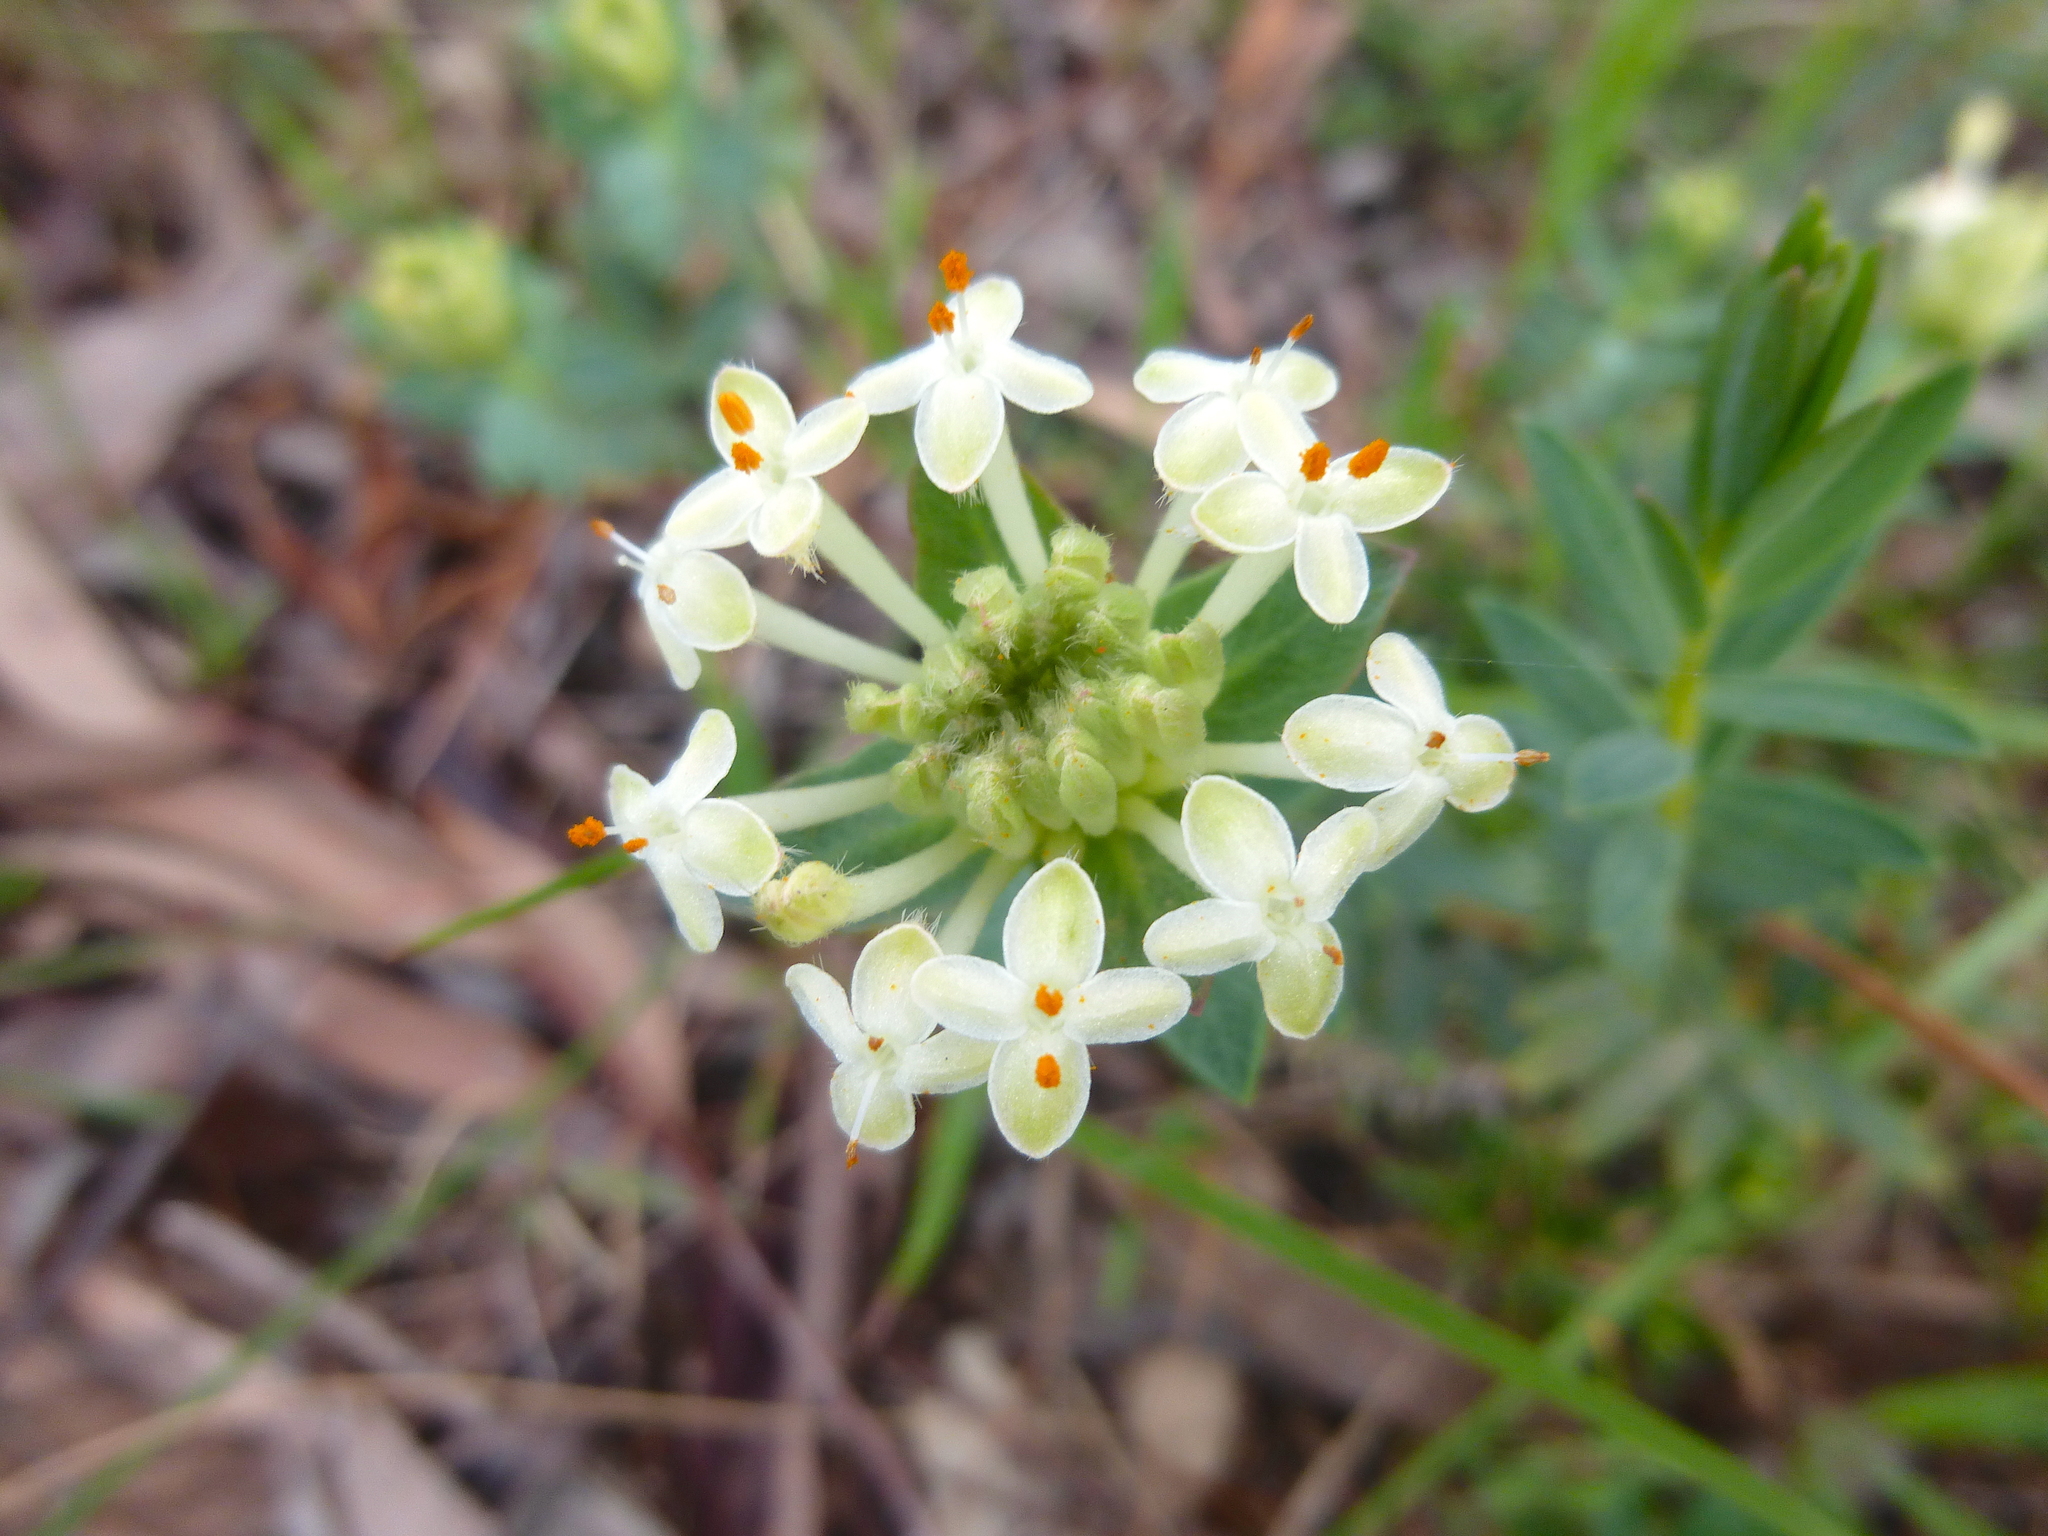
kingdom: Plantae
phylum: Tracheophyta
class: Magnoliopsida
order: Malvales
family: Thymelaeaceae
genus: Pimelea
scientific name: Pimelea linifolia
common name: Queen-of-the-bush
